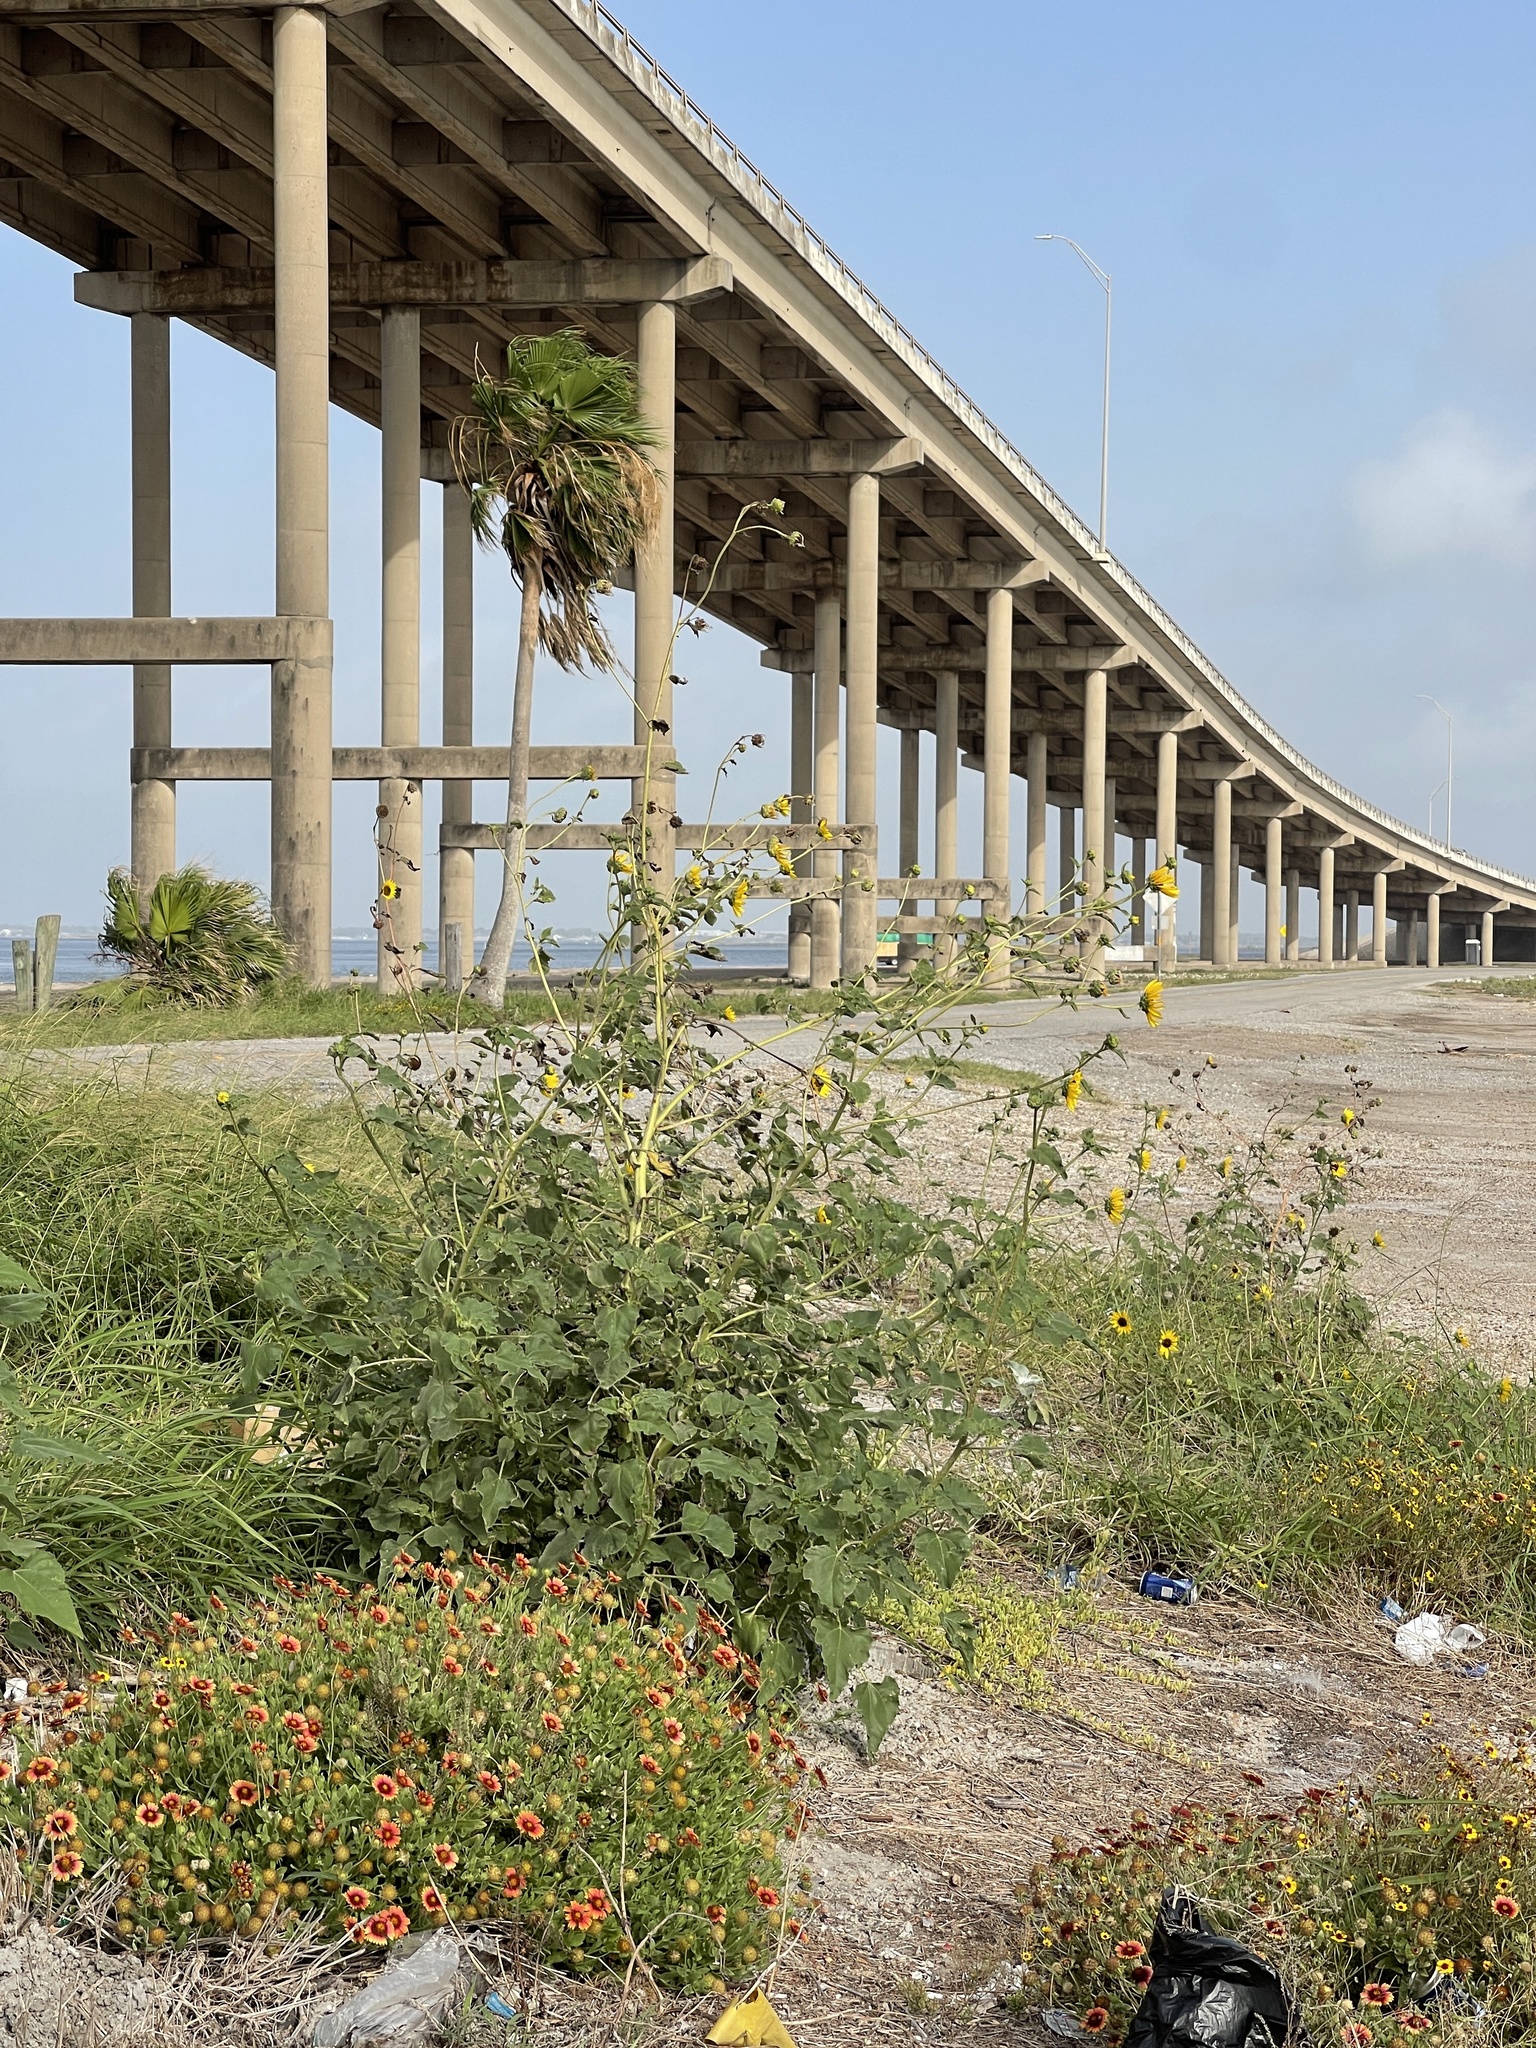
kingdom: Plantae
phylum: Tracheophyta
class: Magnoliopsida
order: Asterales
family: Asteraceae
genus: Helianthus
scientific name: Helianthus annuus
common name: Sunflower
